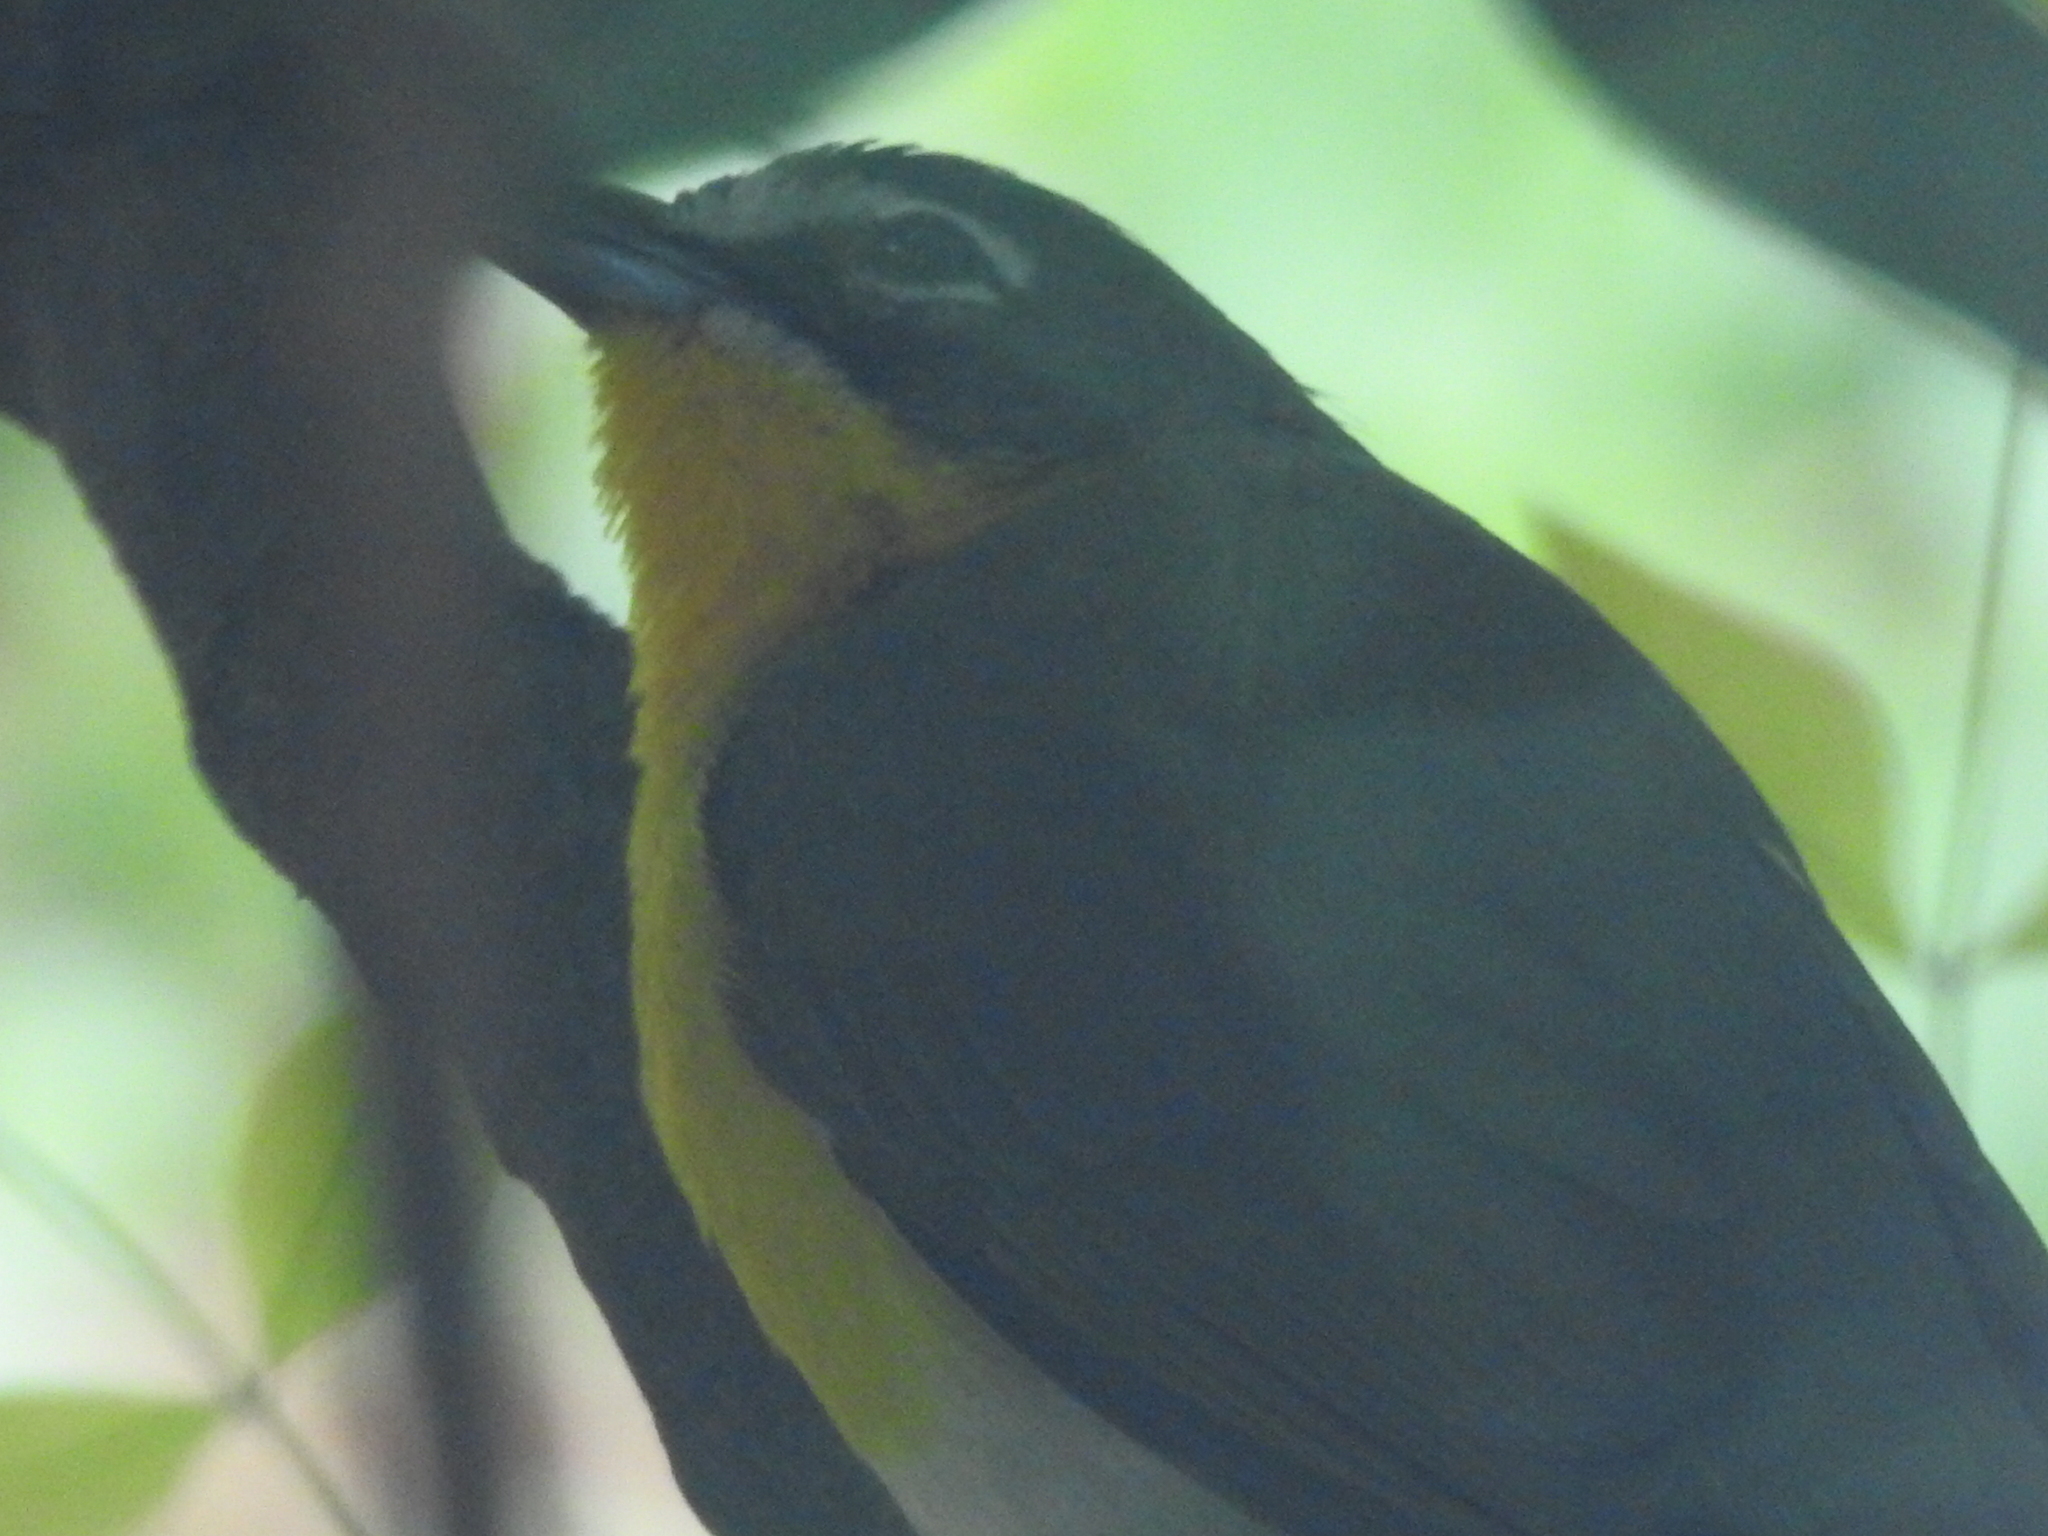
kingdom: Animalia
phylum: Chordata
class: Aves
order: Passeriformes
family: Parulidae
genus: Icteria
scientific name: Icteria virens
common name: Yellow-breasted chat
